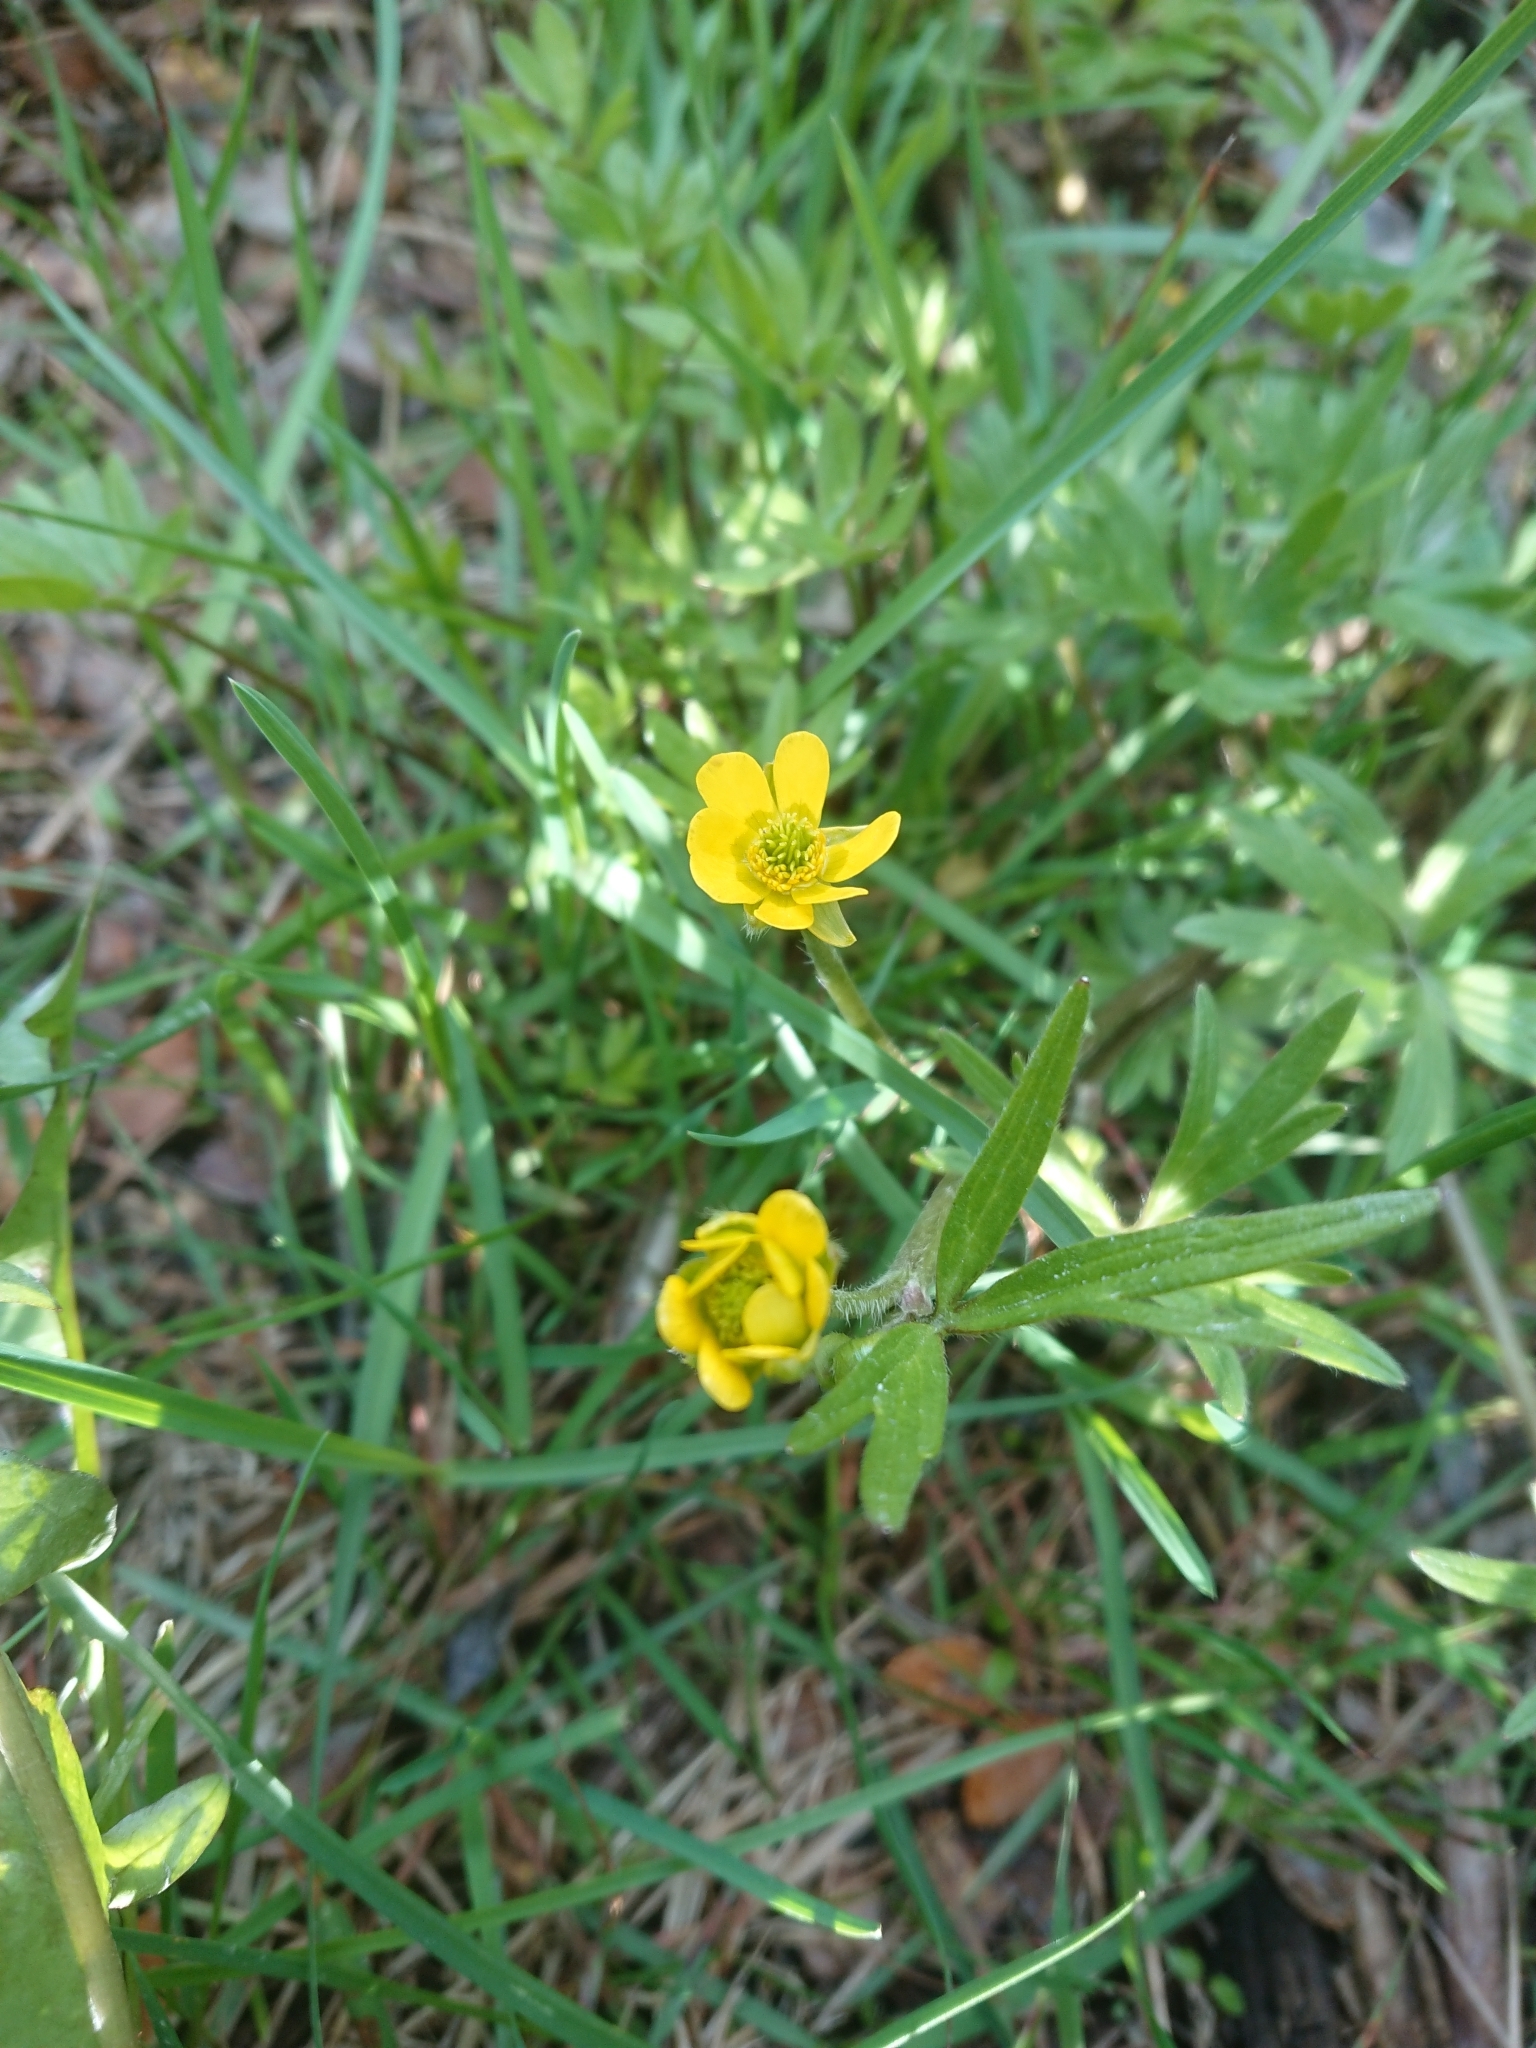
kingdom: Plantae
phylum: Tracheophyta
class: Magnoliopsida
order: Ranunculales
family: Ranunculaceae
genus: Ranunculus
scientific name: Ranunculus peduncularis
